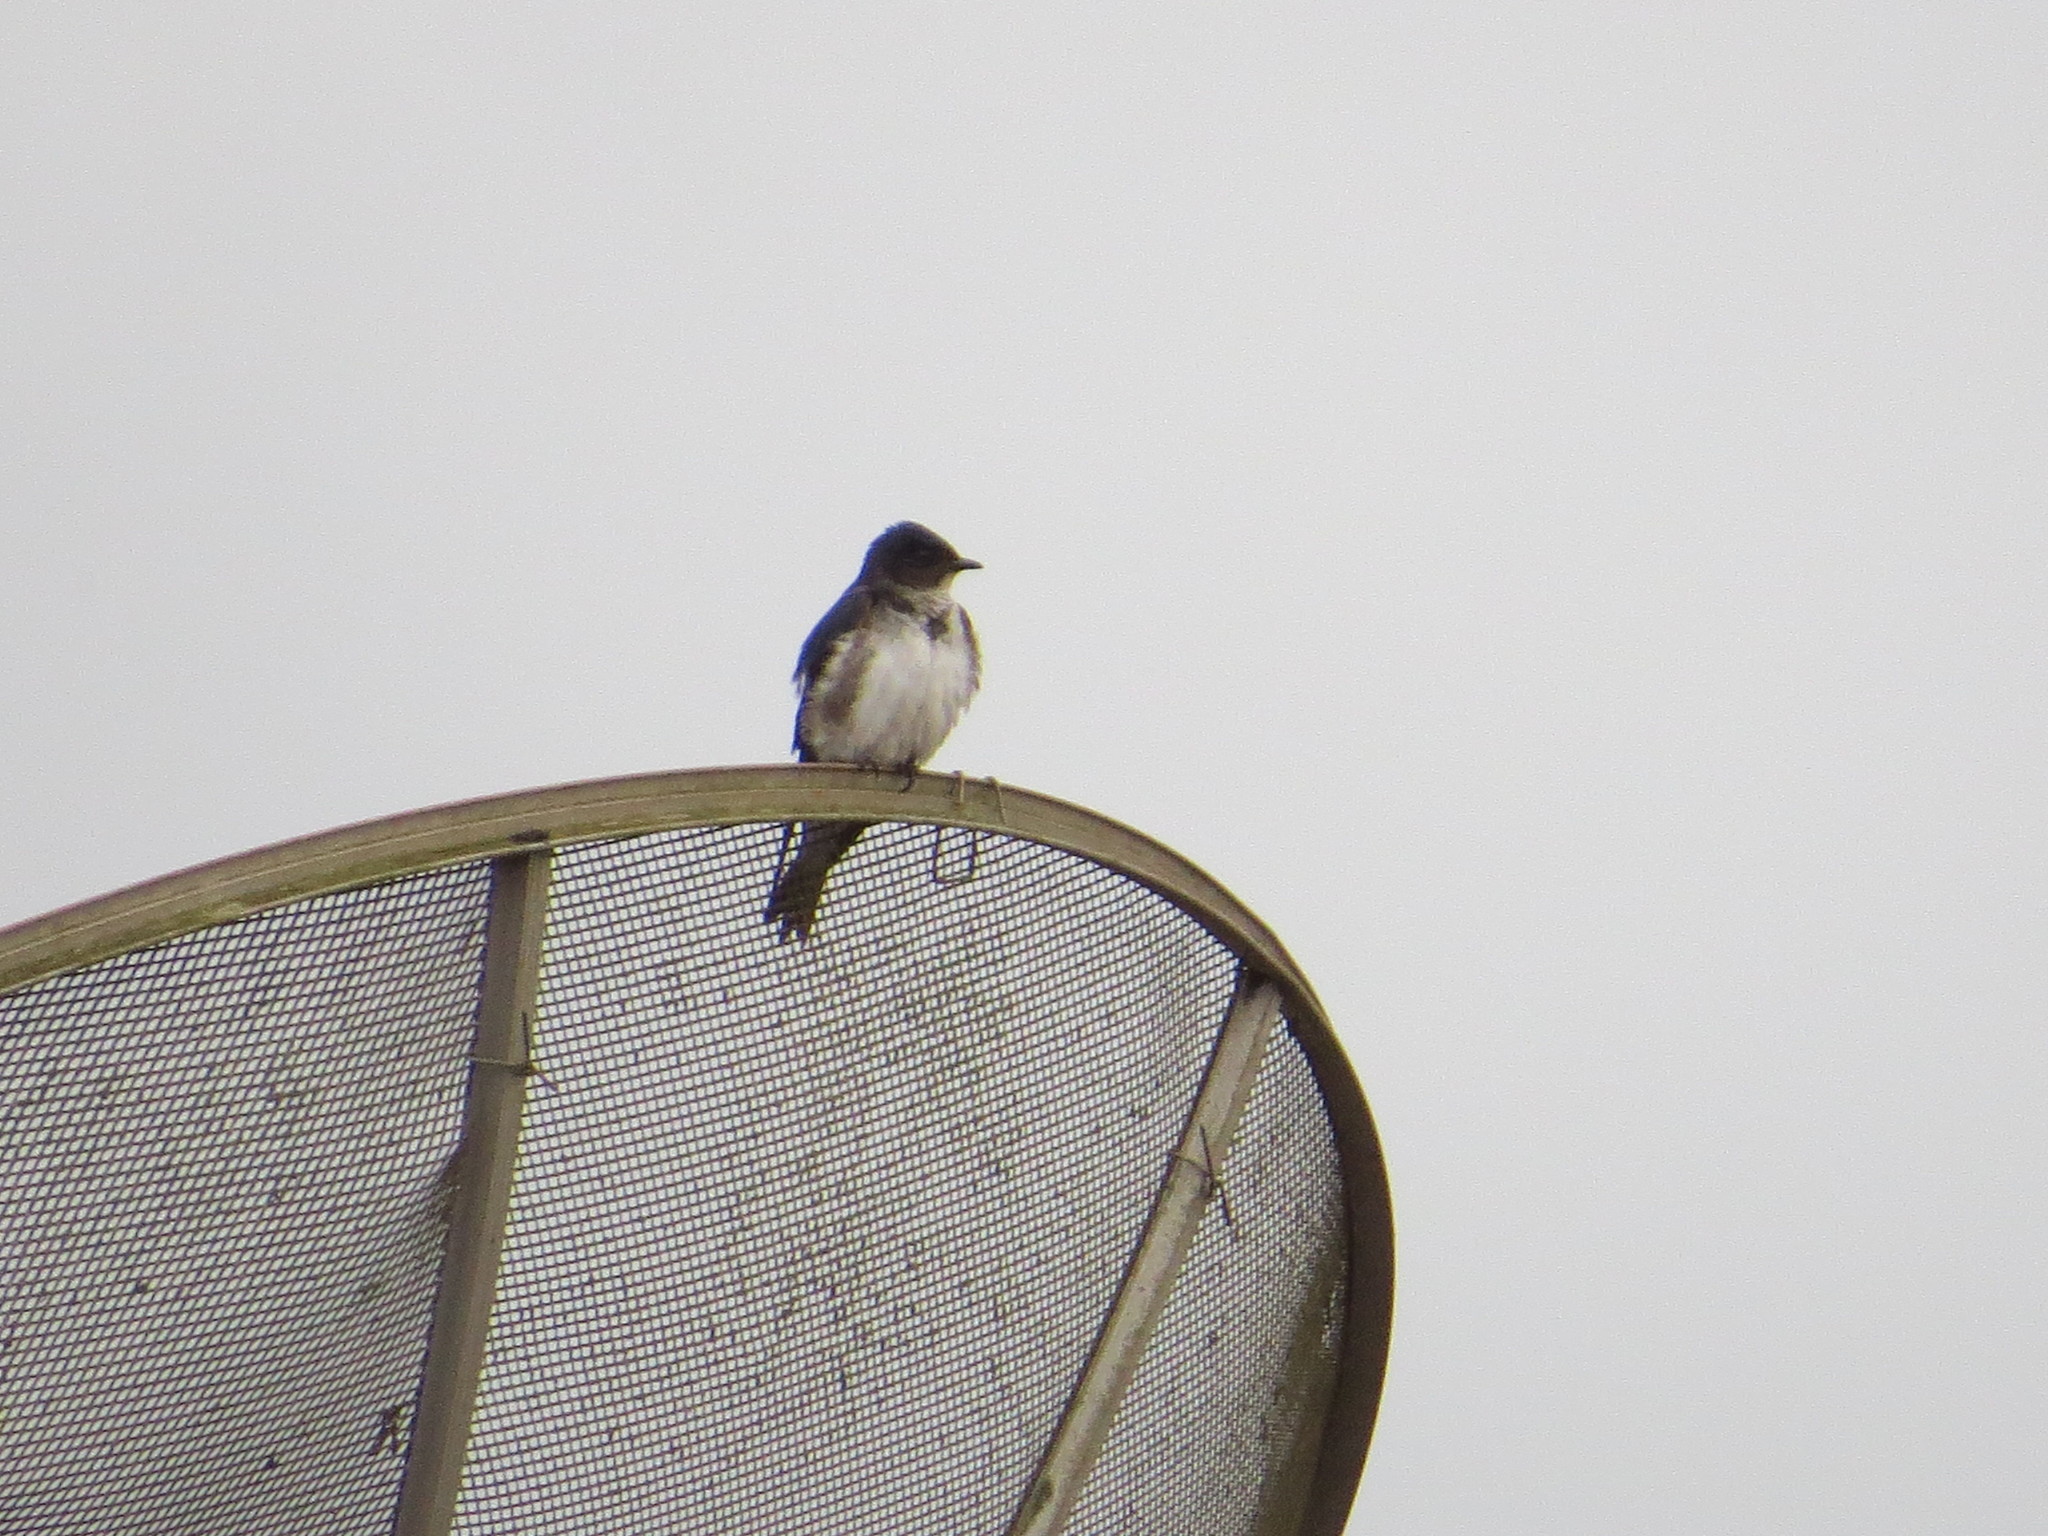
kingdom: Animalia
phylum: Chordata
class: Aves
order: Passeriformes
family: Hirundinidae
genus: Progne
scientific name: Progne chalybea
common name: Grey-breasted martin
